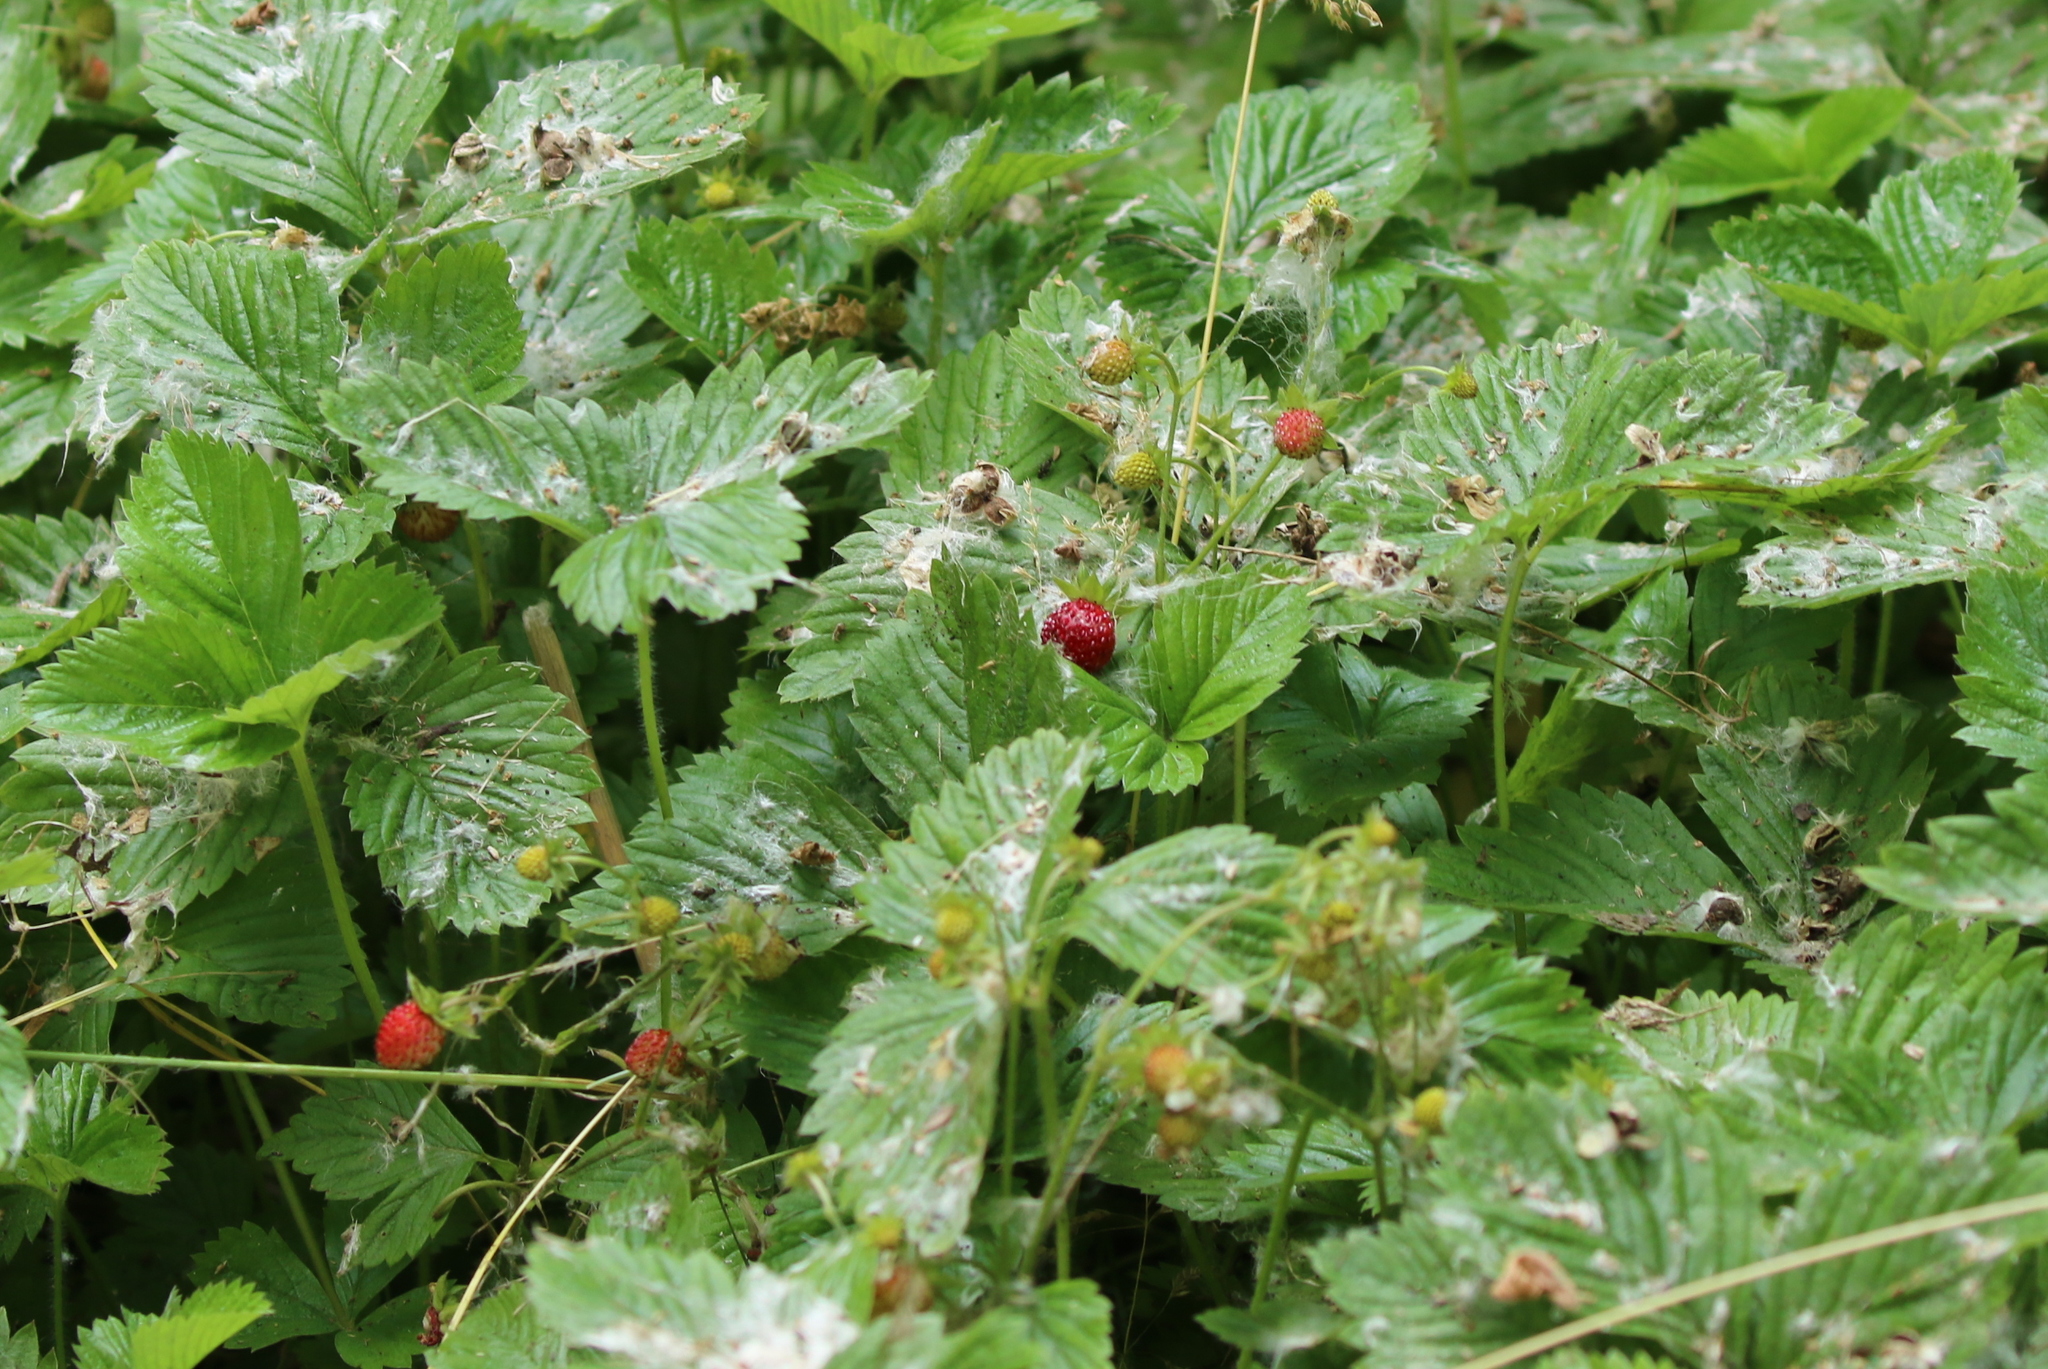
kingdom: Plantae
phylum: Tracheophyta
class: Magnoliopsida
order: Rosales
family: Rosaceae
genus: Fragaria
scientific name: Fragaria vesca
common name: Wild strawberry
